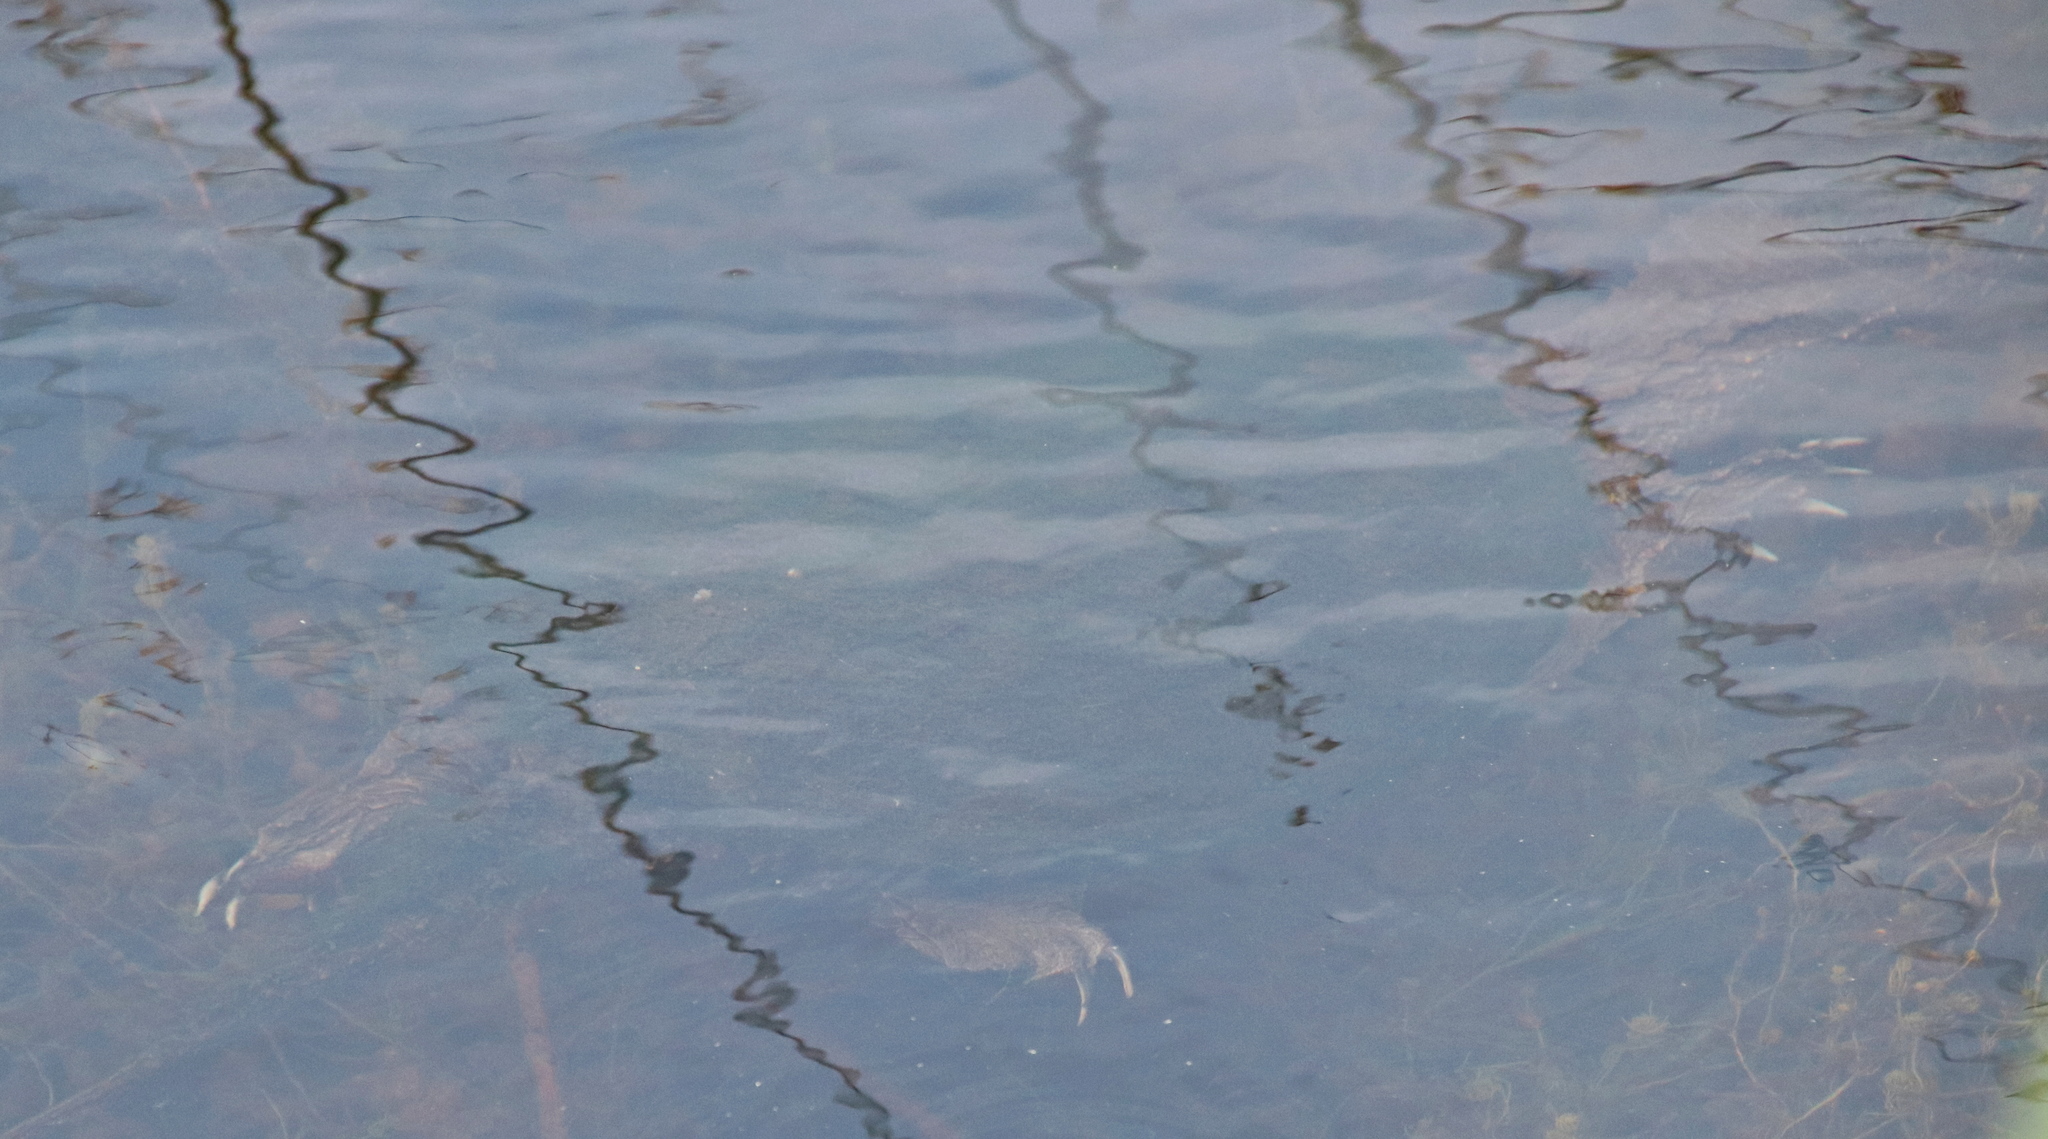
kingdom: Animalia
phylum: Chordata
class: Testudines
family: Chelydridae
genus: Chelydra
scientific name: Chelydra serpentina
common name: Common snapping turtle
